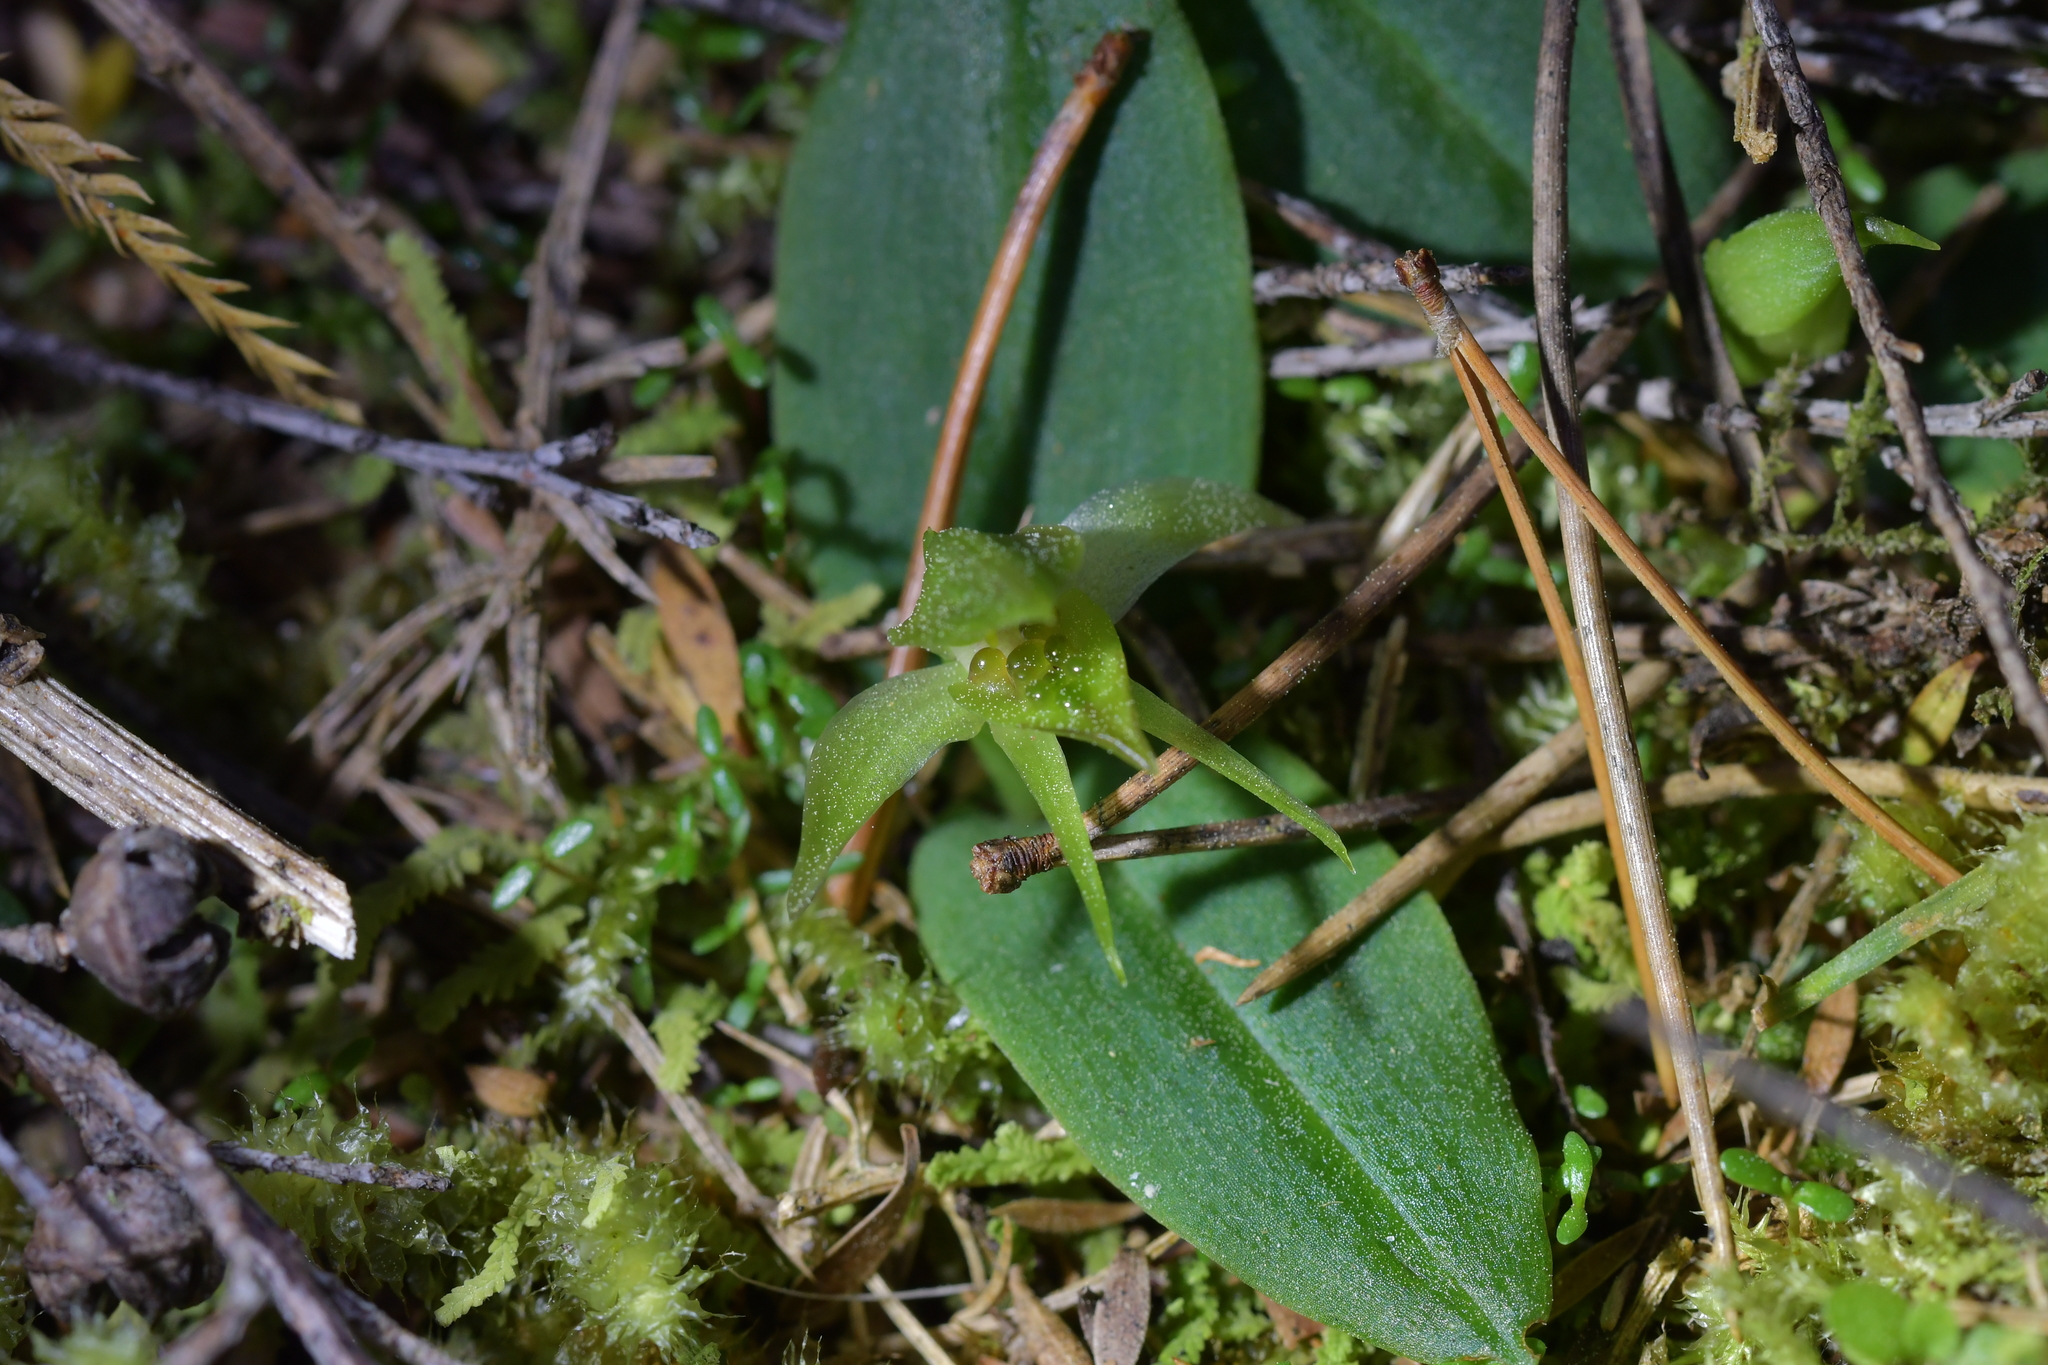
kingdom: Plantae
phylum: Tracheophyta
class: Liliopsida
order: Asparagales
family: Orchidaceae
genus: Chiloglottis
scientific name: Chiloglottis cornuta
